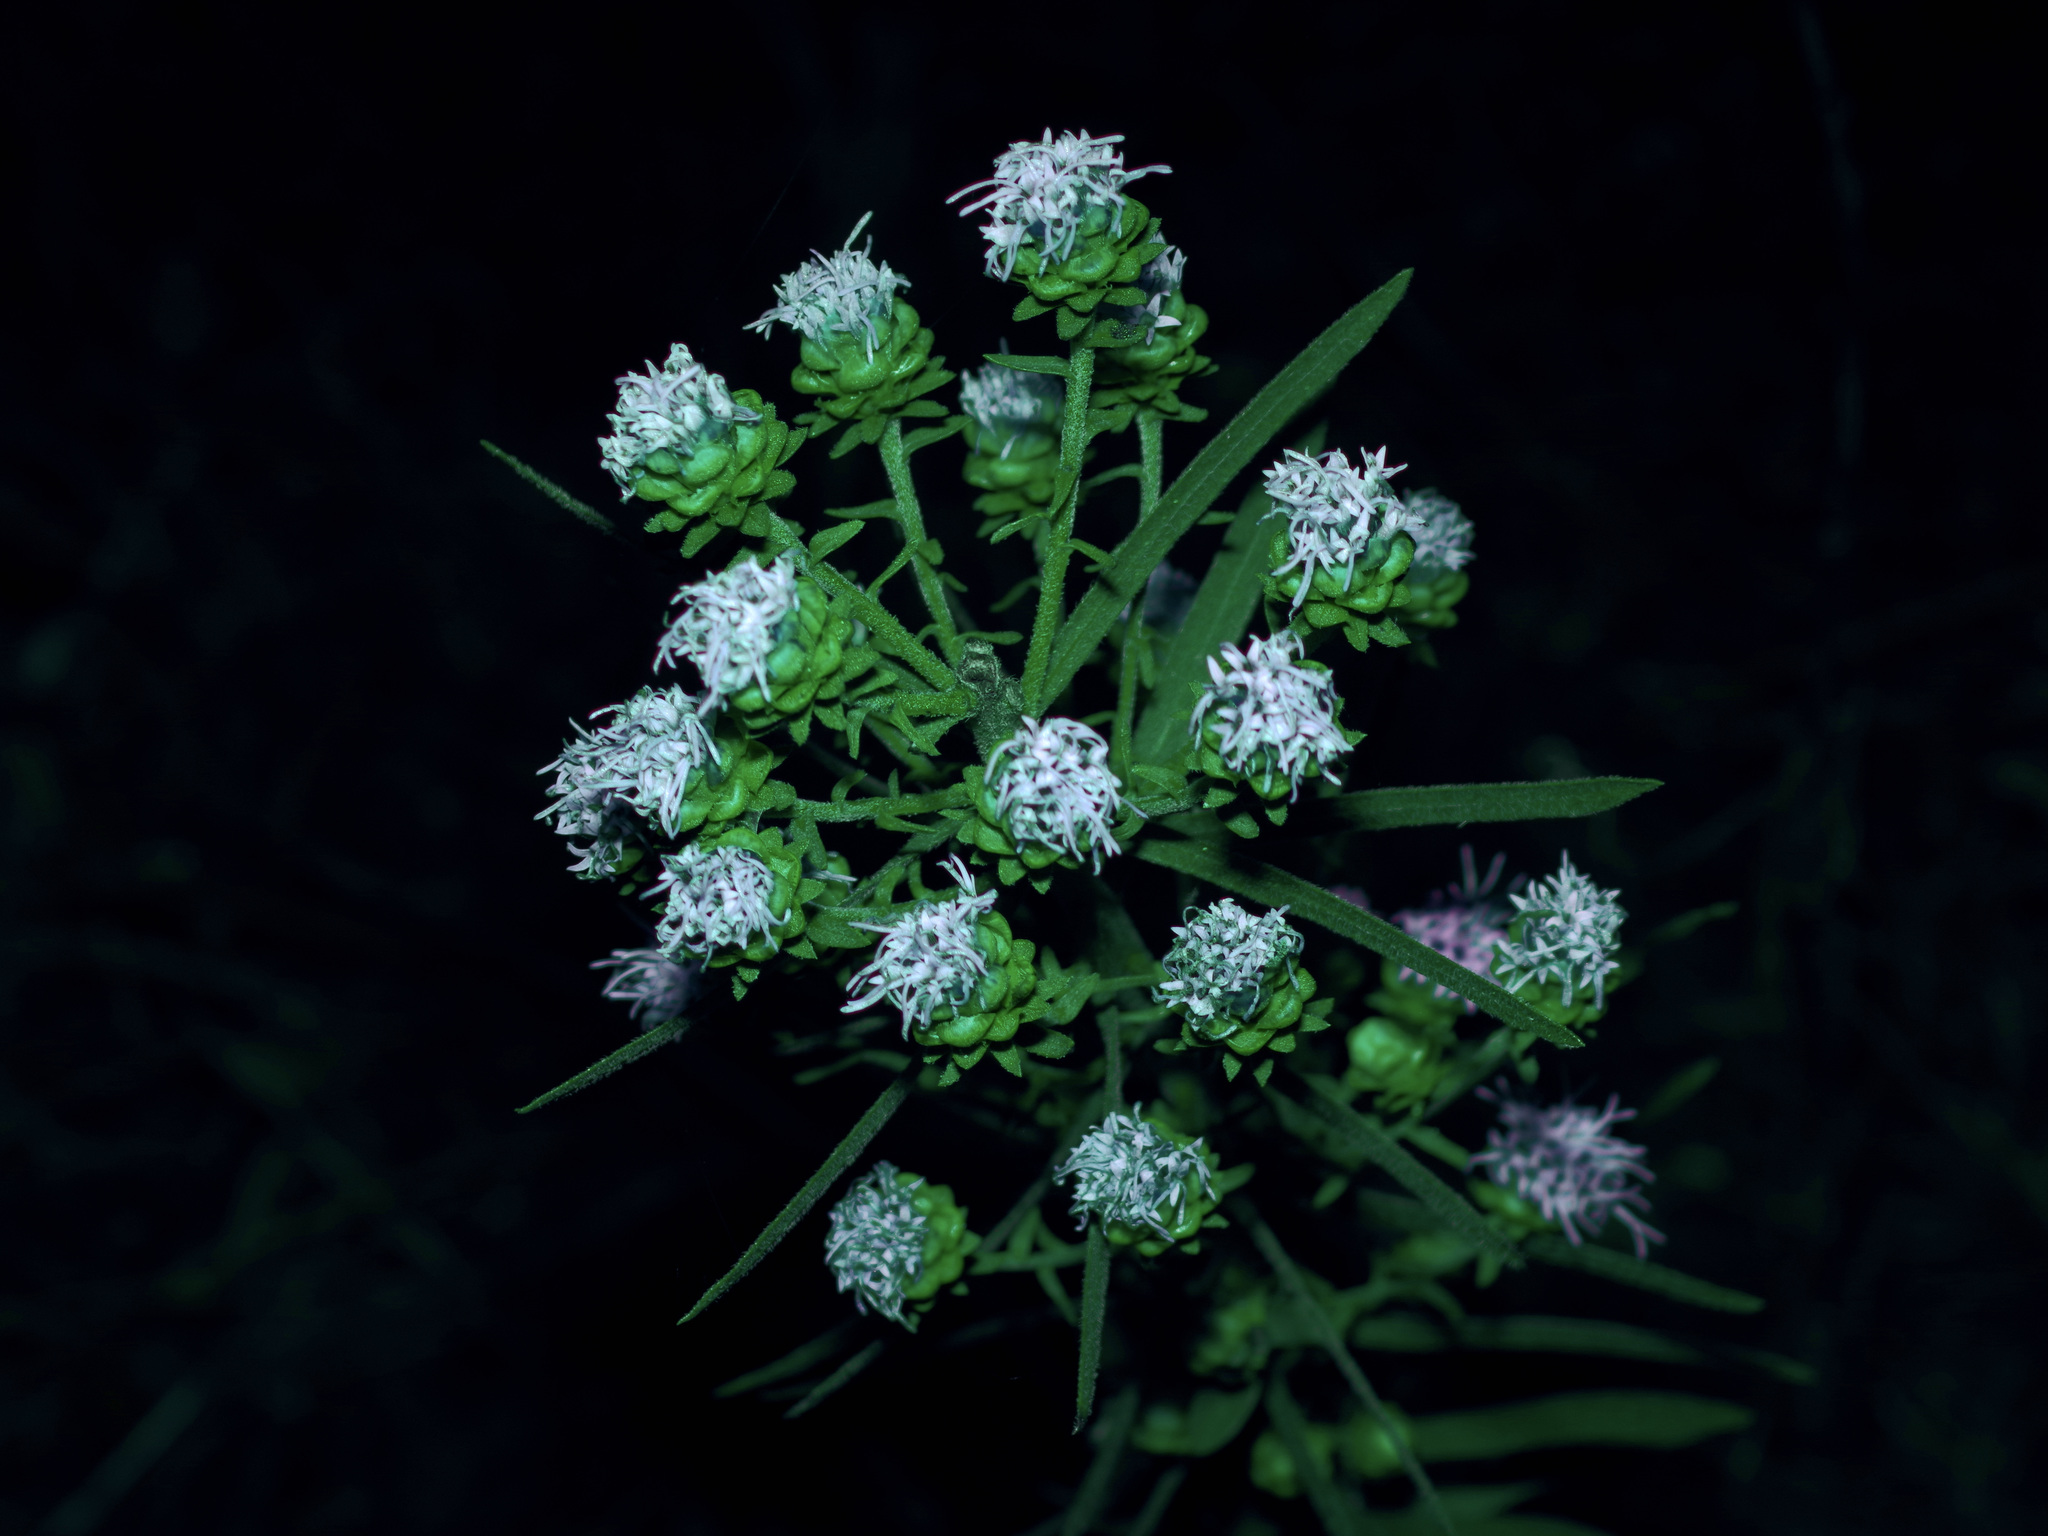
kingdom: Plantae
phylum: Tracheophyta
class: Magnoliopsida
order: Asterales
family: Asteraceae
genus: Liatris
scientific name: Liatris aspera
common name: Lacerate blazing-star
